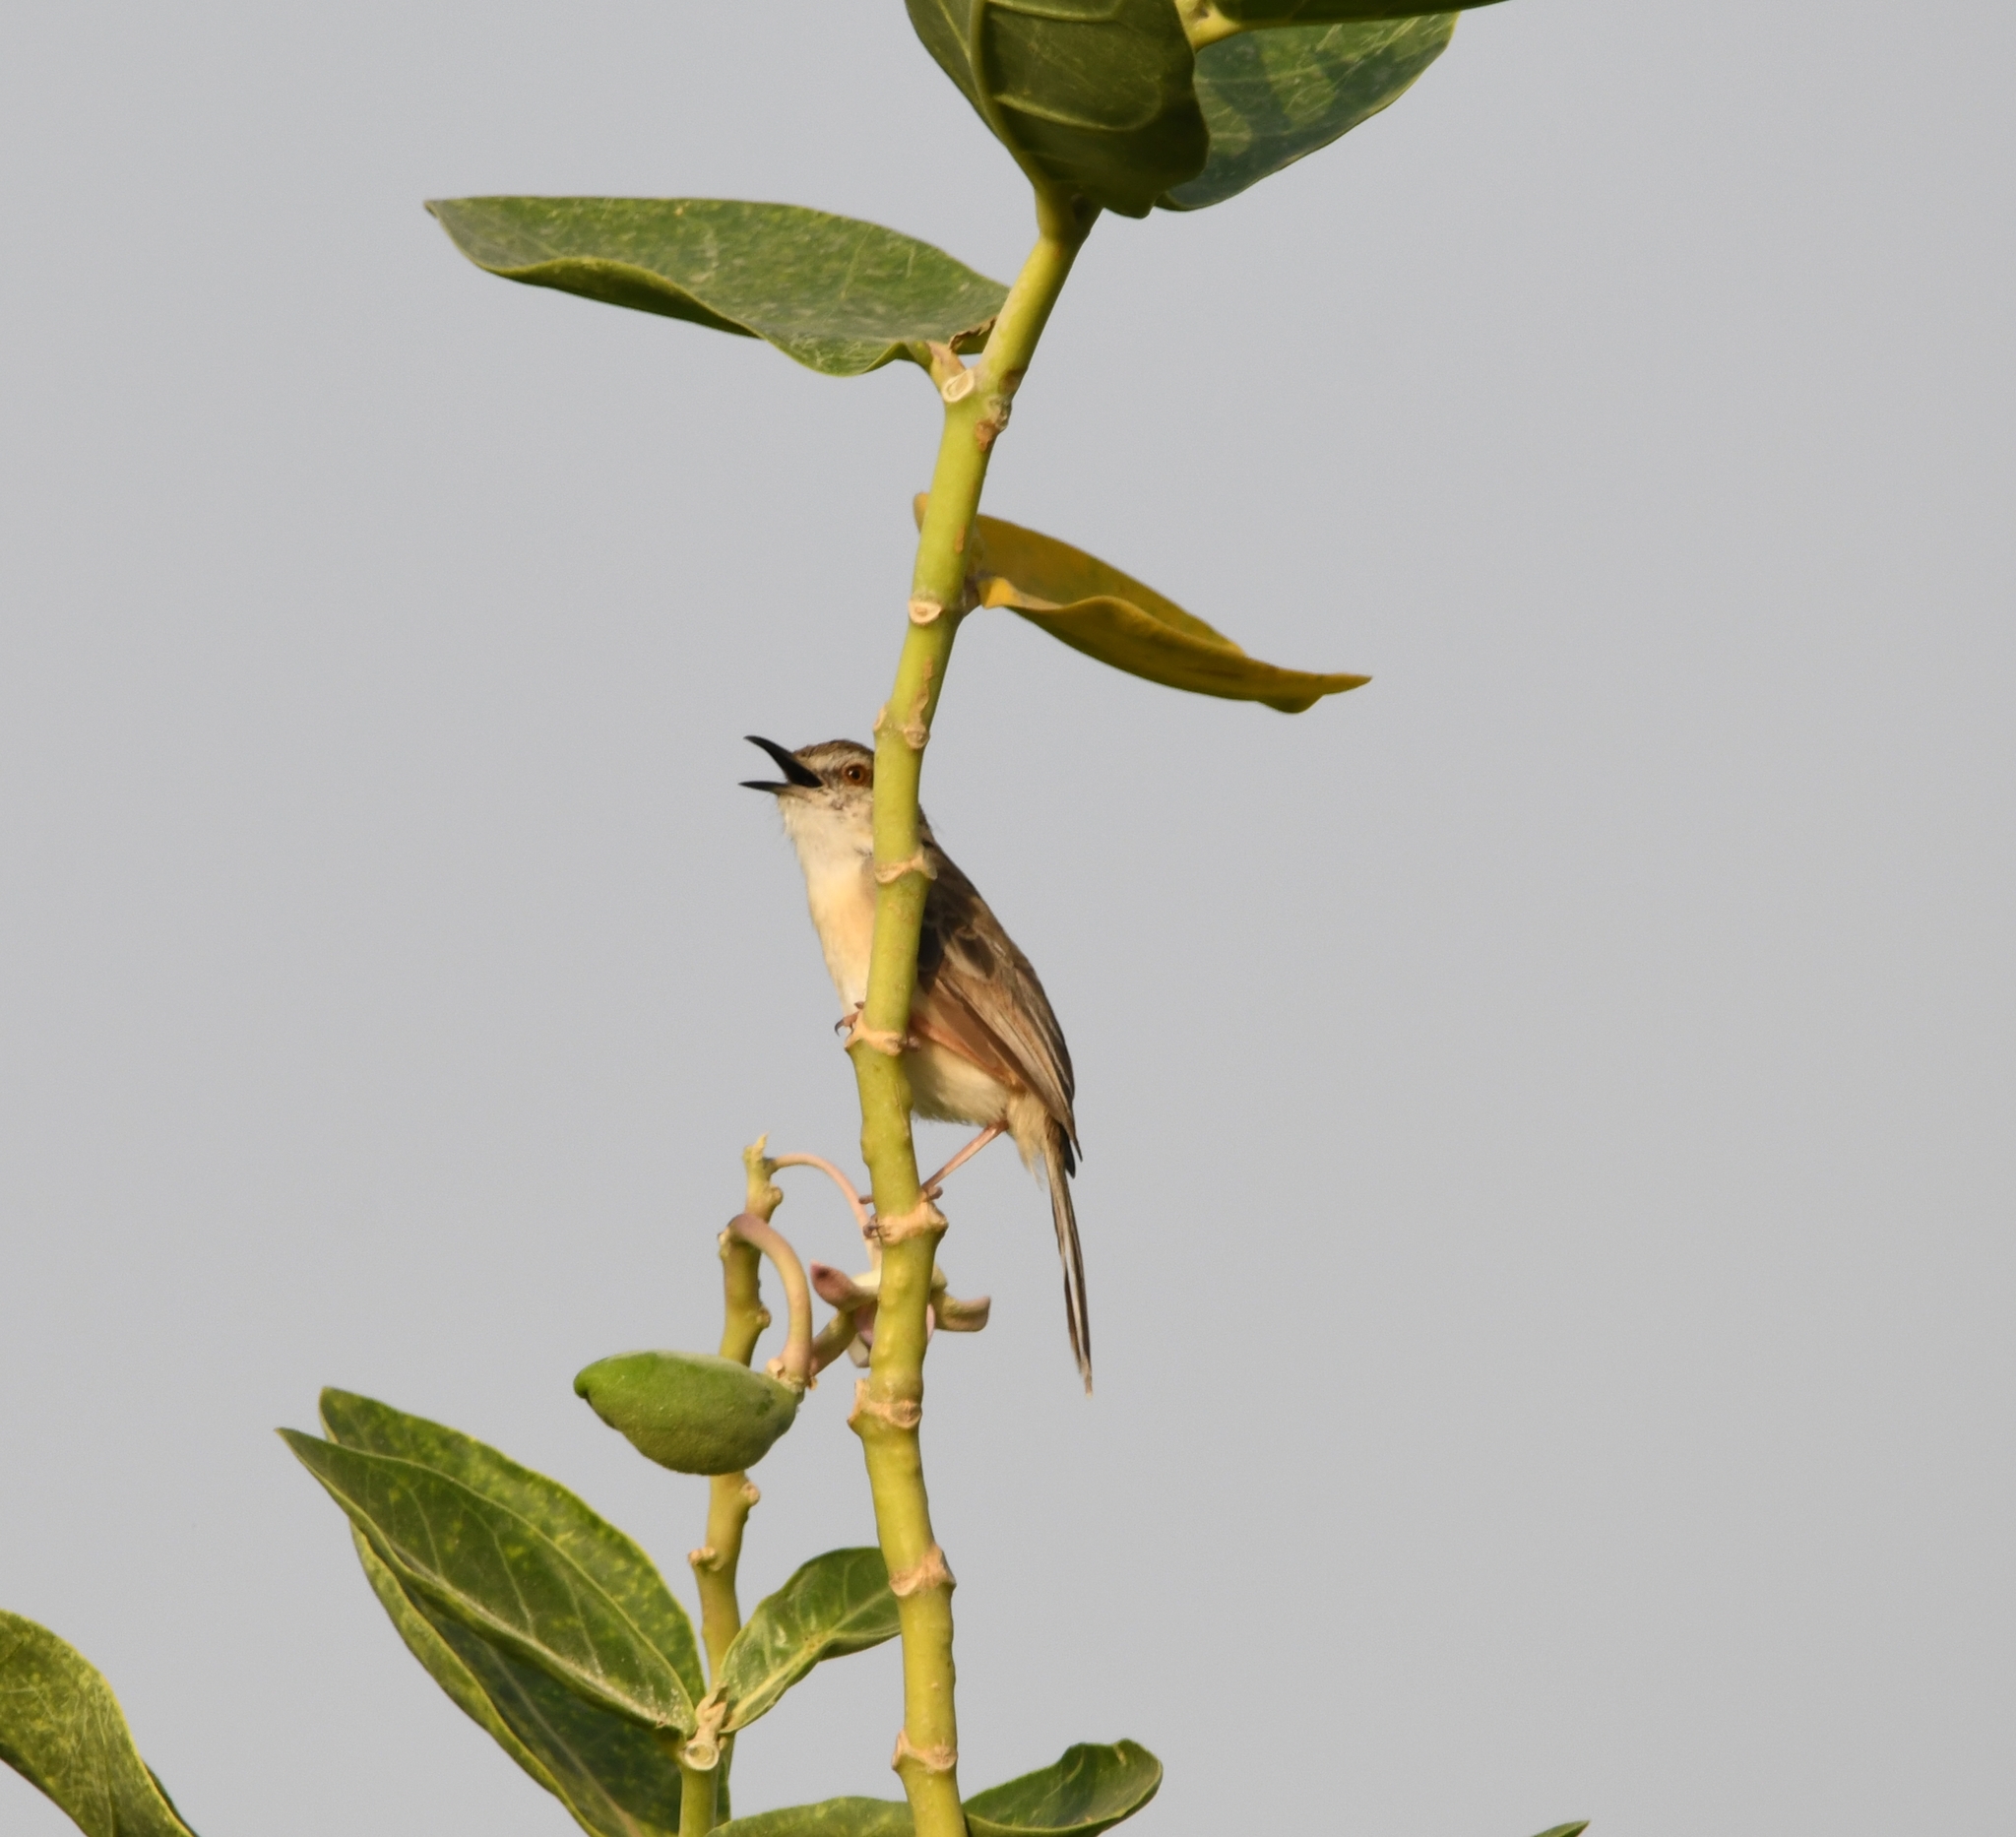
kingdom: Animalia
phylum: Chordata
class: Aves
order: Passeriformes
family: Cisticolidae
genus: Prinia
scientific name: Prinia socialis
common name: Ashy prinia
